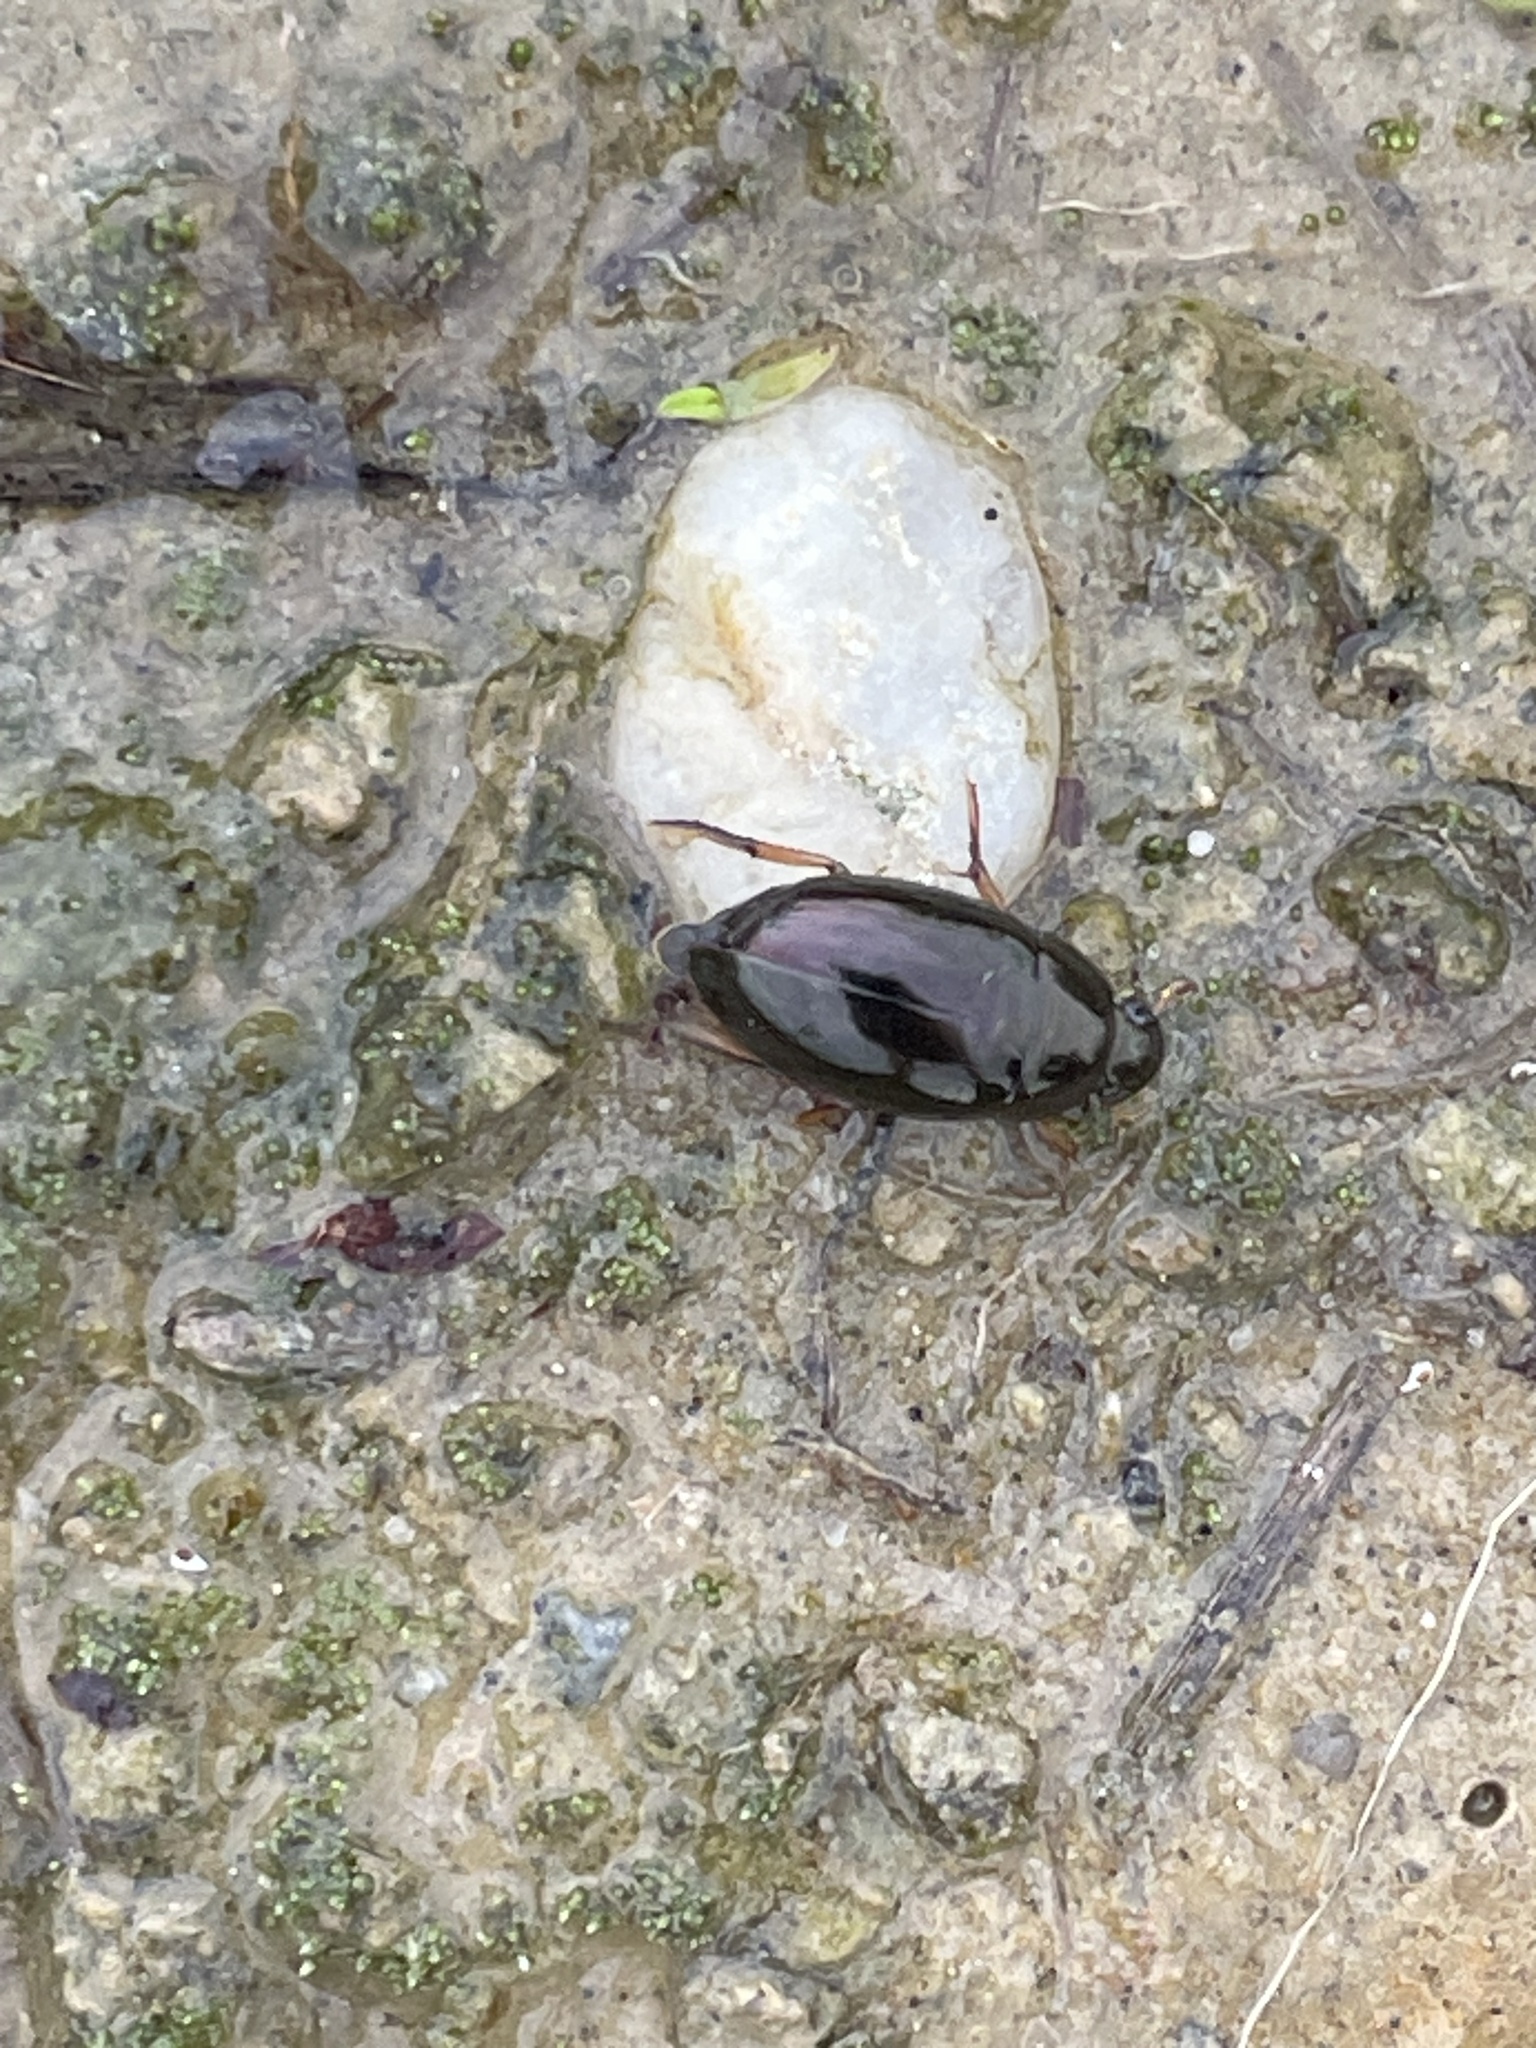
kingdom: Animalia
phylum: Arthropoda
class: Insecta
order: Coleoptera
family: Hydrophilidae
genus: Tropisternus
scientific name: Tropisternus
